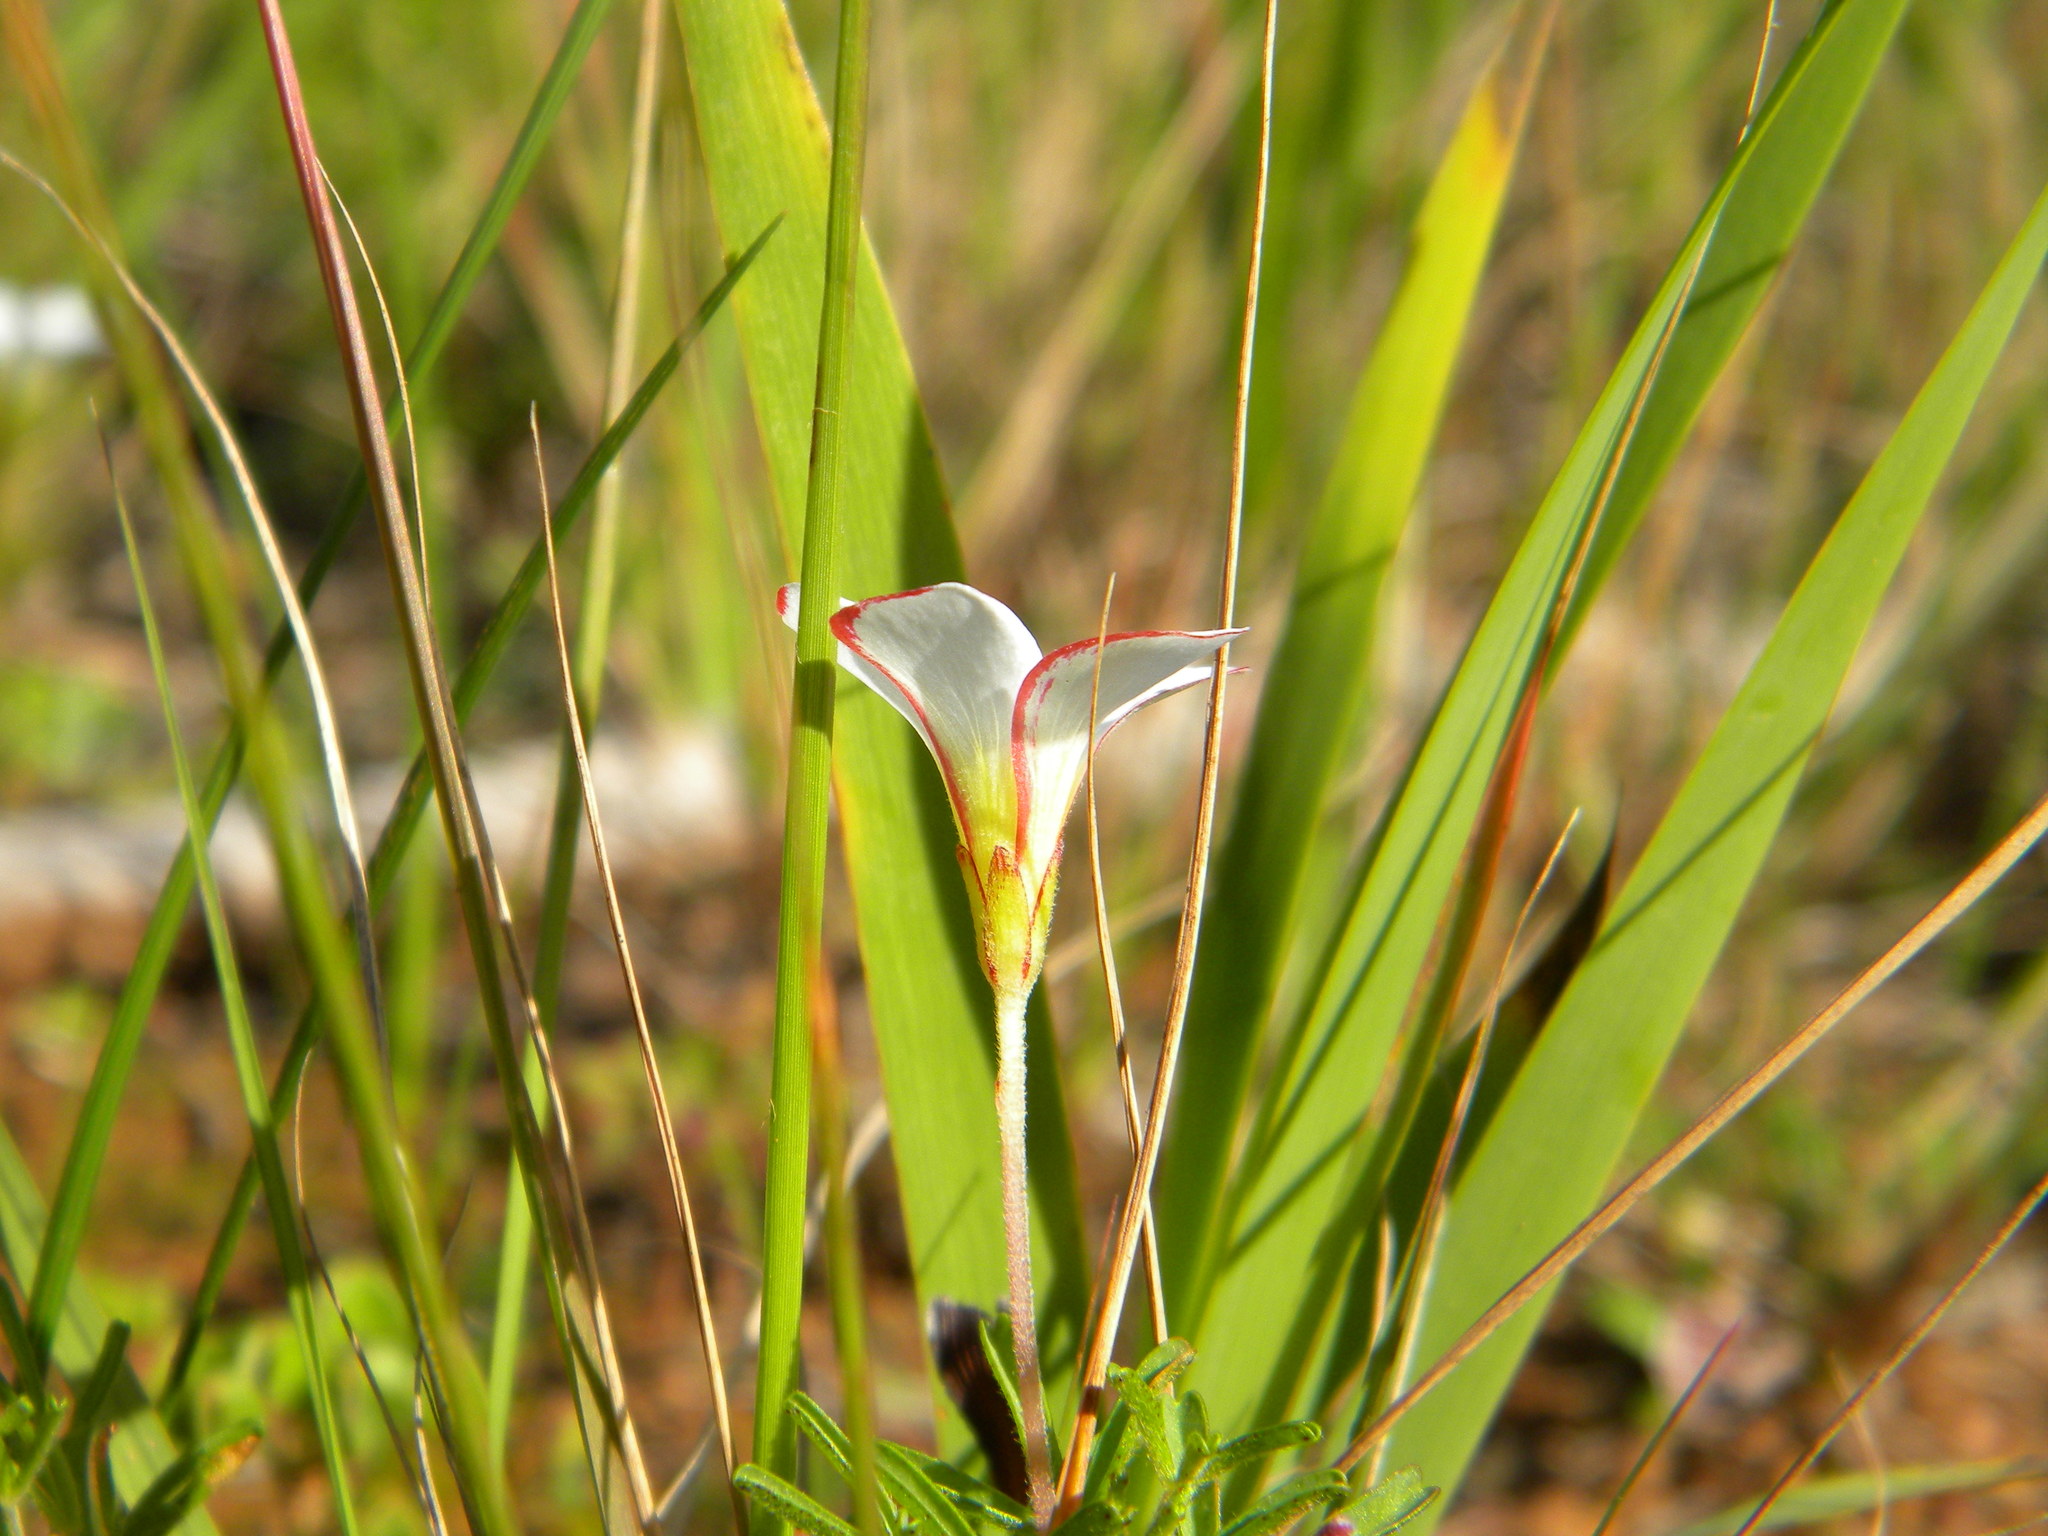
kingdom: Plantae
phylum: Tracheophyta
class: Magnoliopsida
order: Oxalidales
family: Oxalidaceae
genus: Oxalis
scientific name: Oxalis versicolor
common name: Peppermint rock oxalis
